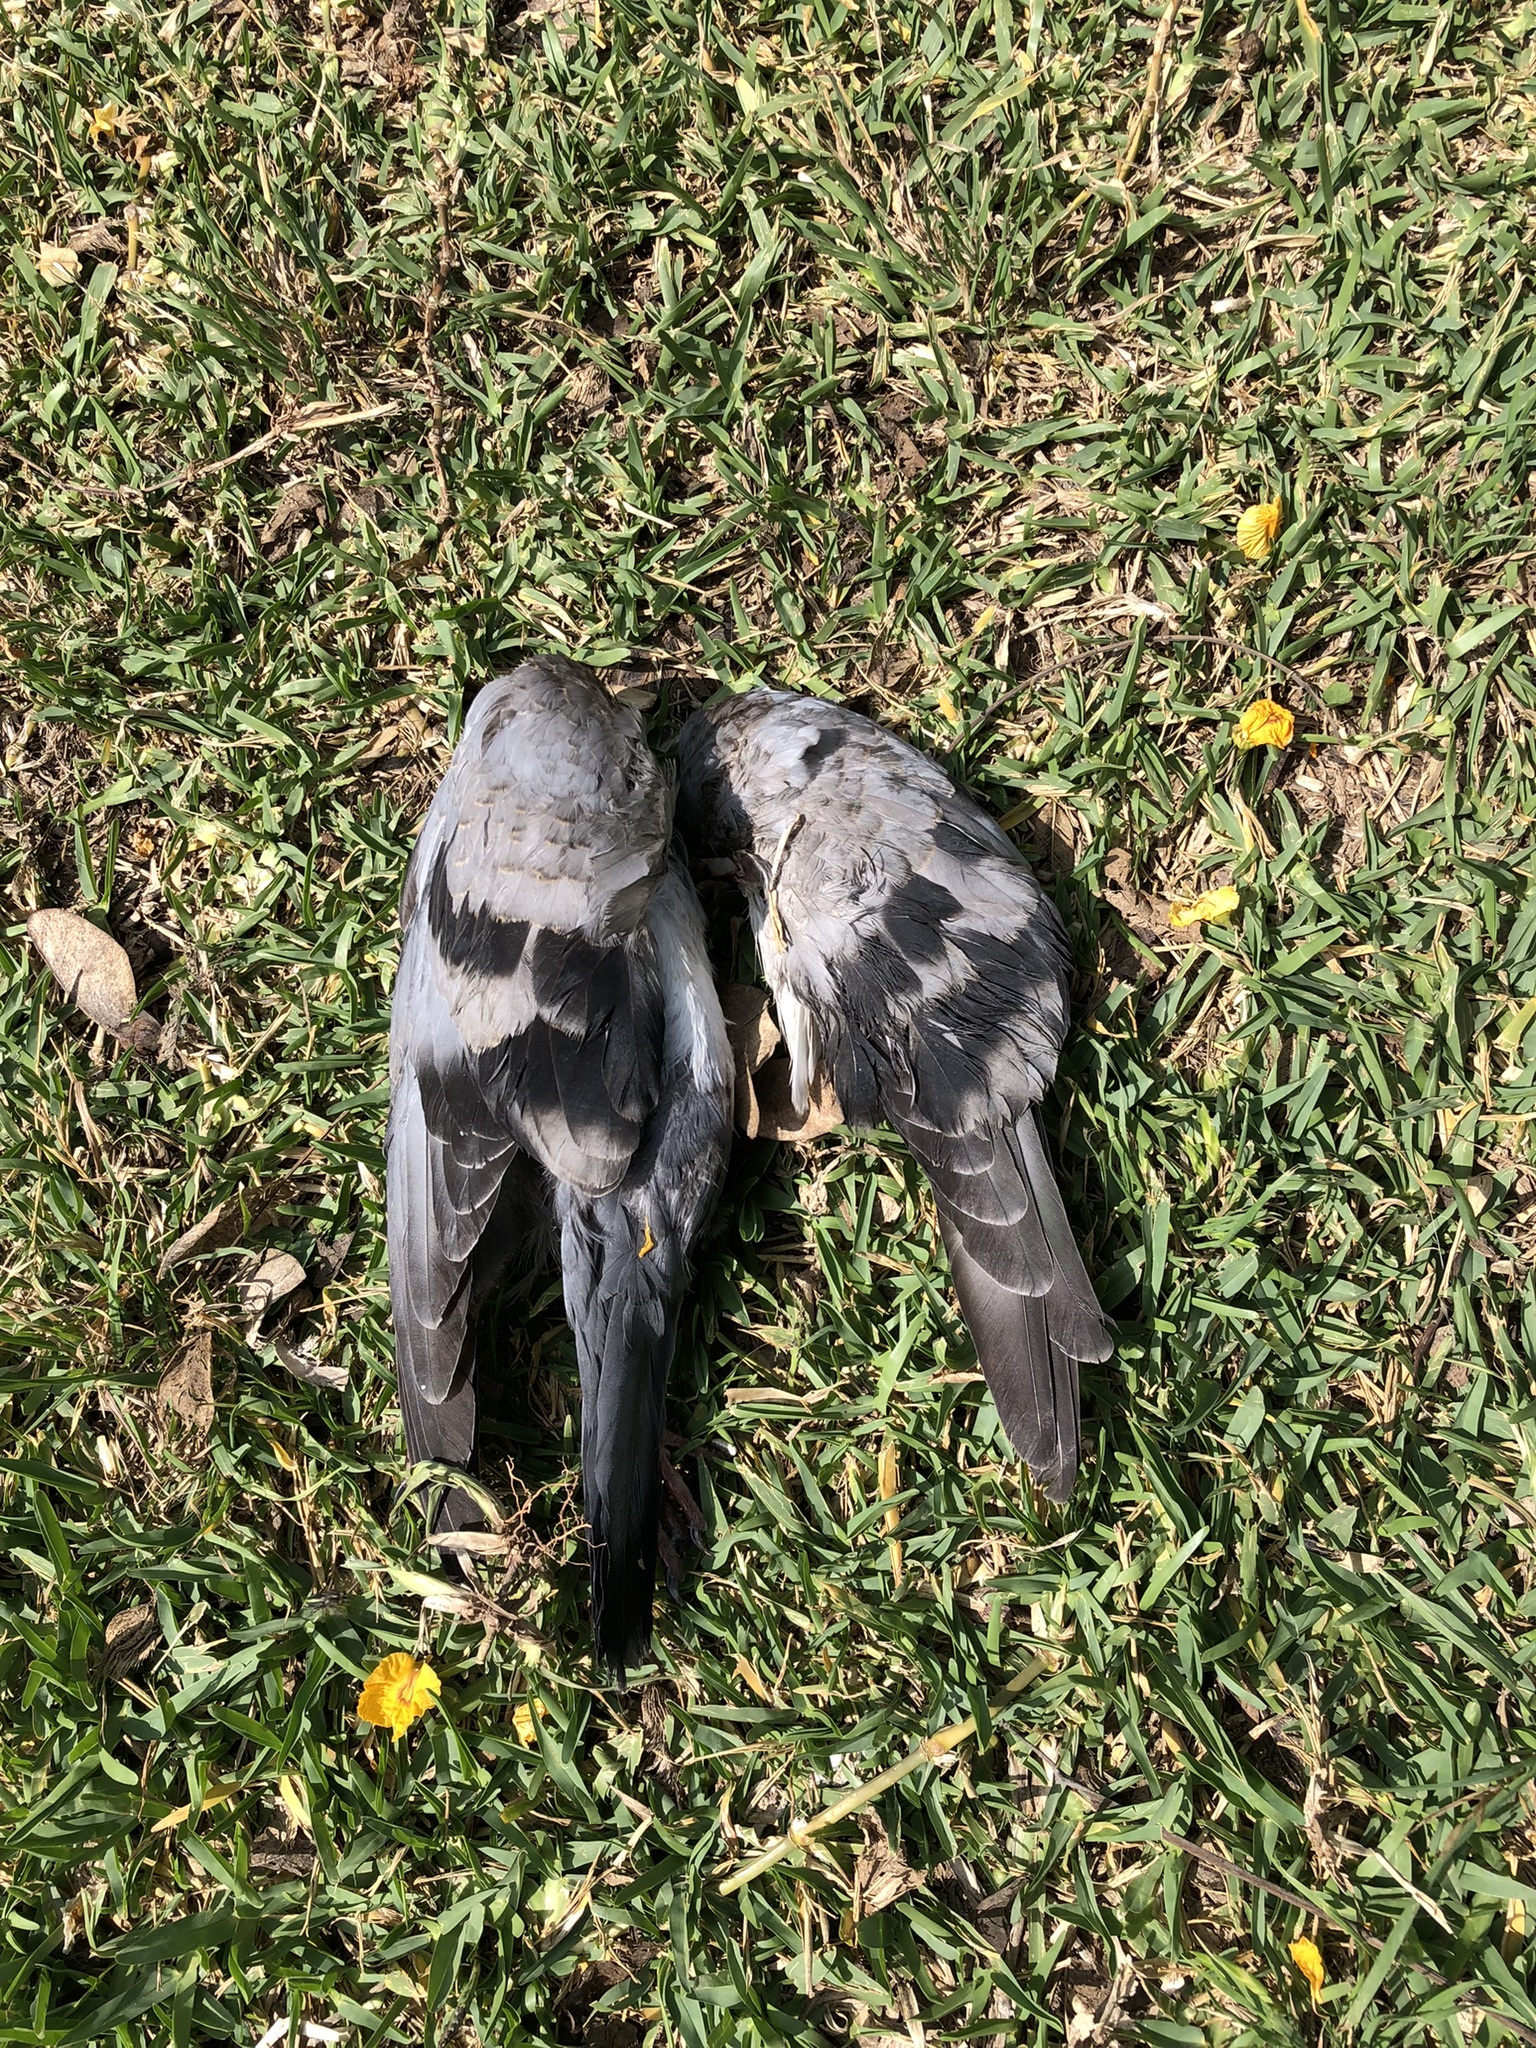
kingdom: Animalia
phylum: Chordata
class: Aves
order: Columbiformes
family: Columbidae
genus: Columba
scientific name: Columba livia
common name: Rock pigeon
